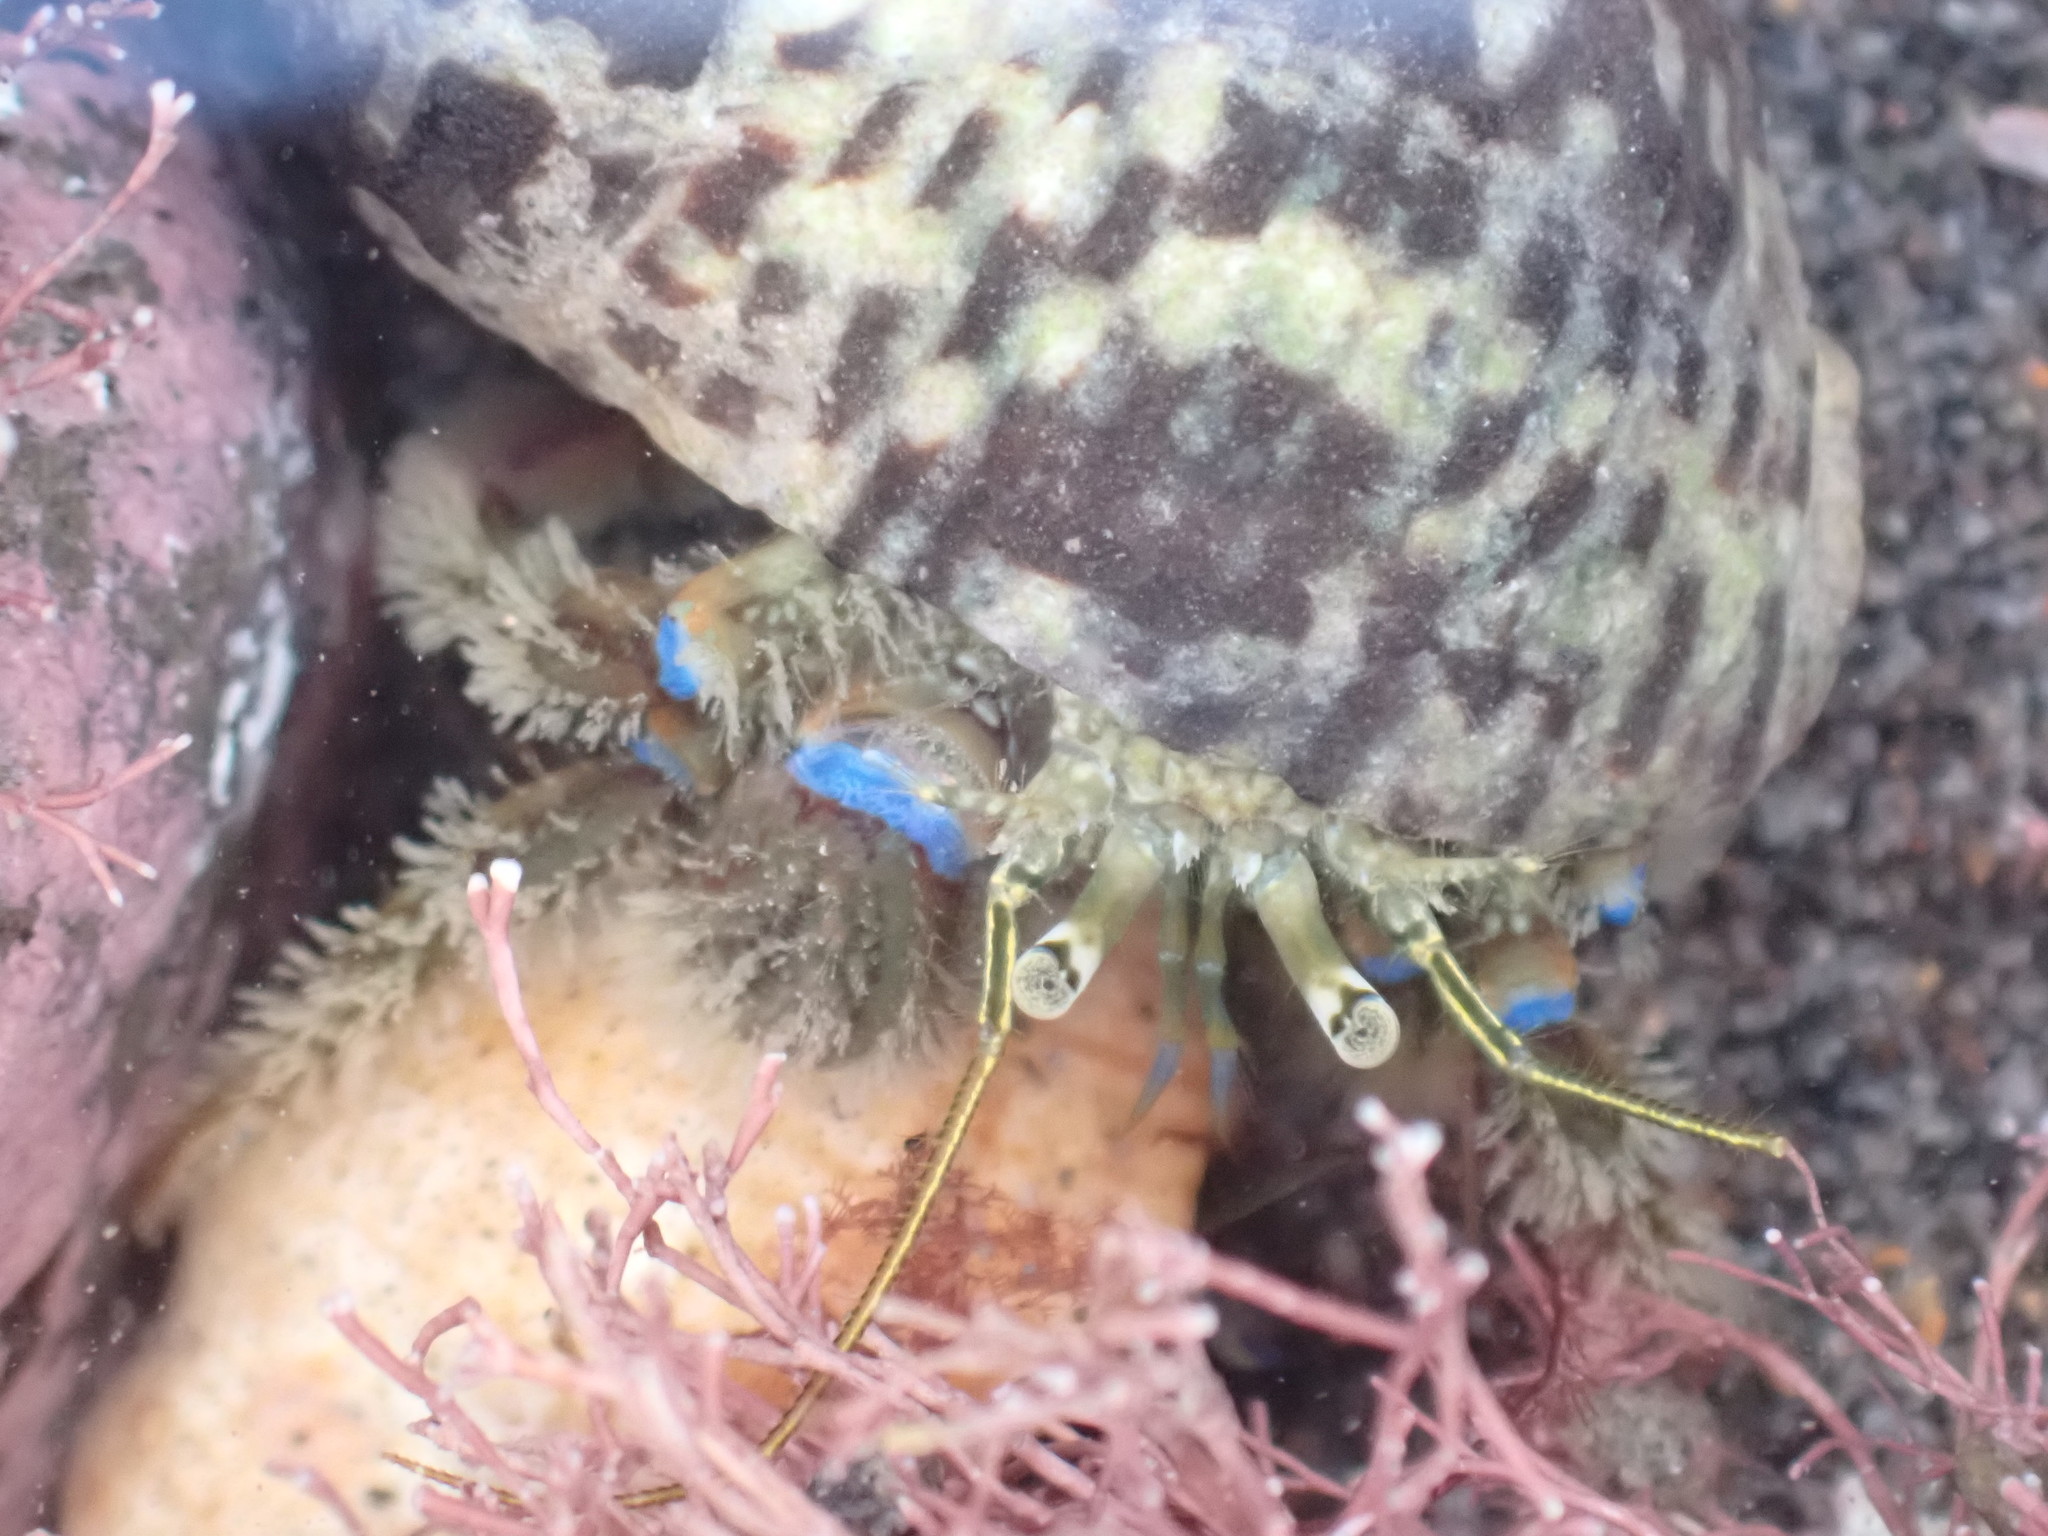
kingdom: Animalia
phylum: Arthropoda
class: Malacostraca
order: Decapoda
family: Paguridae
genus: Pagurus
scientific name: Pagurus novizealandiae
